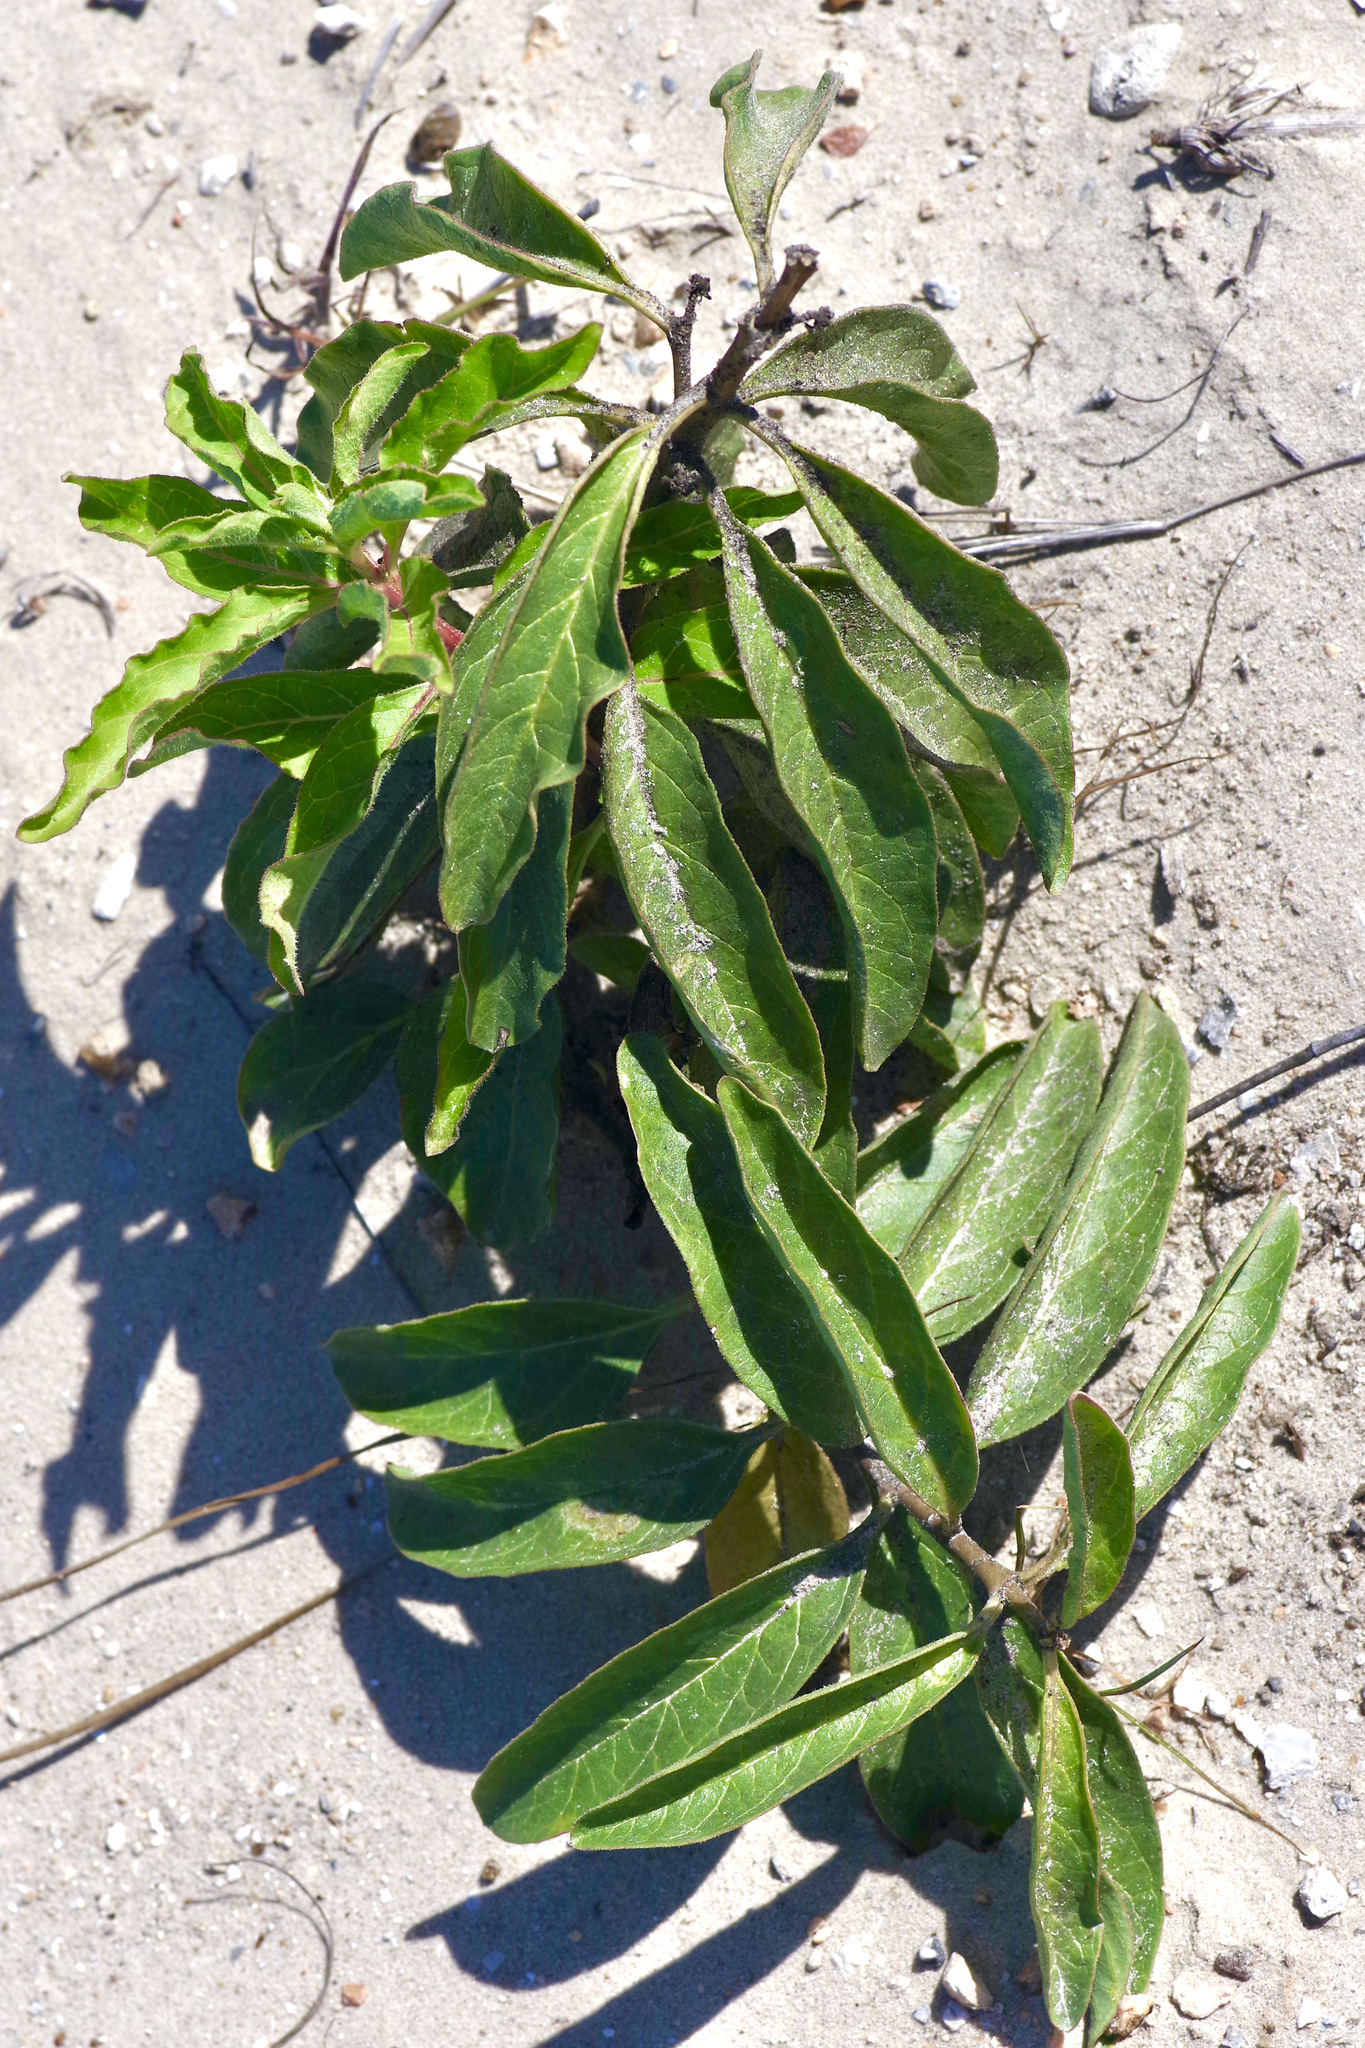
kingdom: Plantae
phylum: Tracheophyta
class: Magnoliopsida
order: Gentianales
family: Apocynaceae
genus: Asclepias
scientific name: Asclepias oenotheroides
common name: Zizotes milkweed
